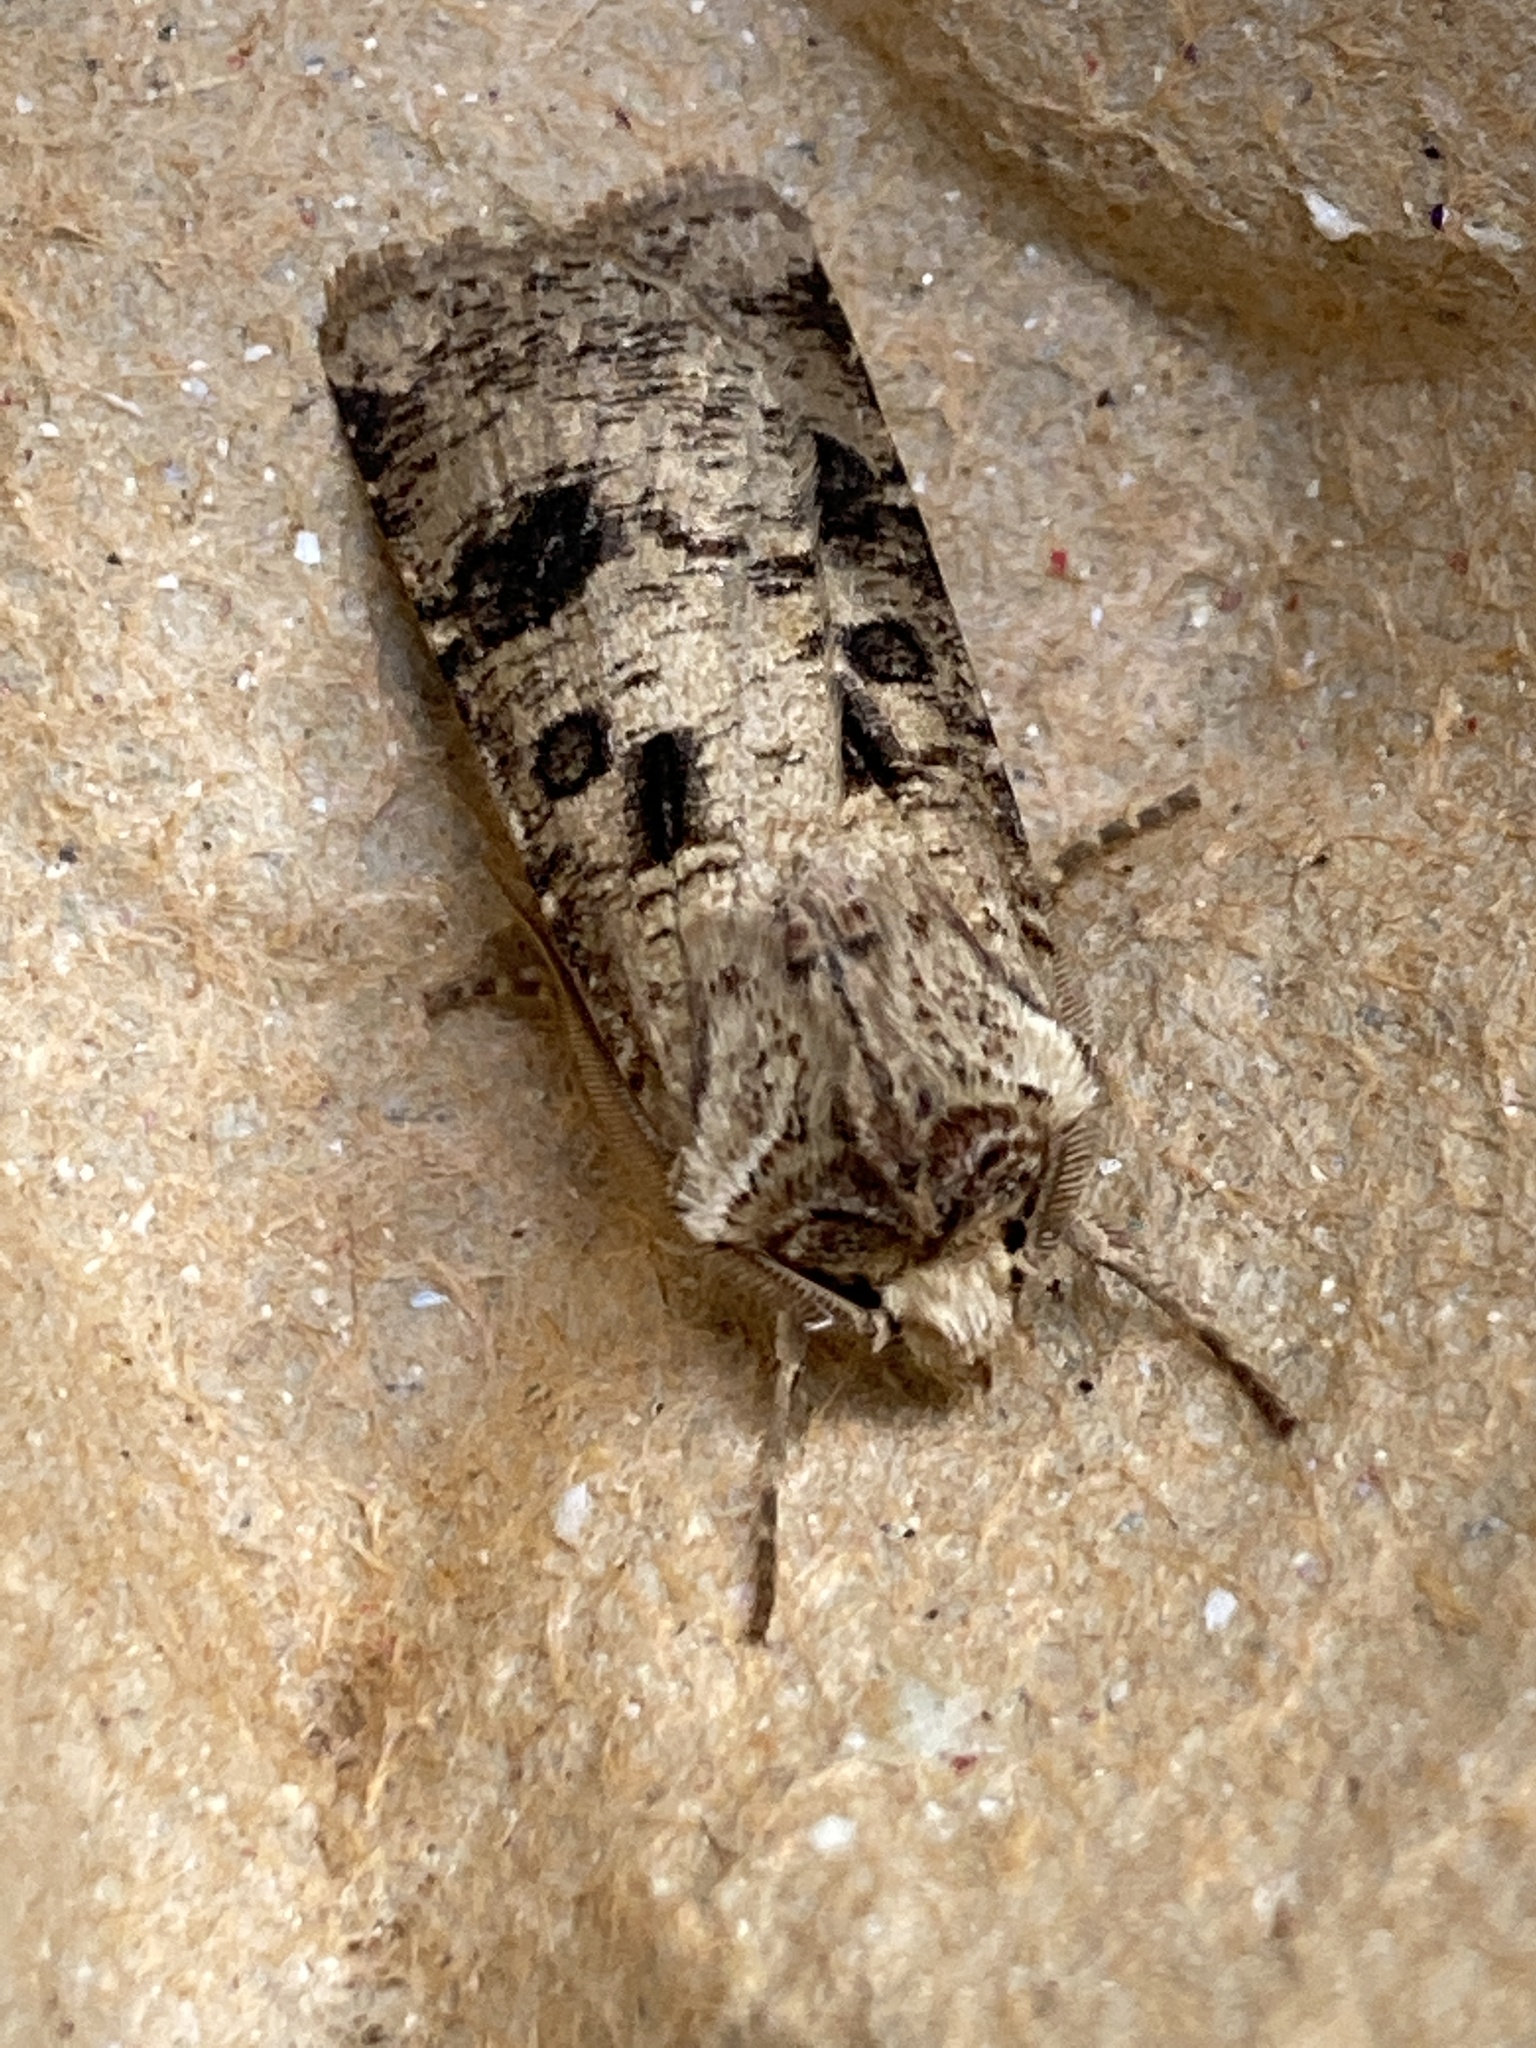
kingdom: Animalia
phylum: Arthropoda
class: Insecta
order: Lepidoptera
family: Noctuidae
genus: Agrotis
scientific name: Agrotis clavis
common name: Heart and club
